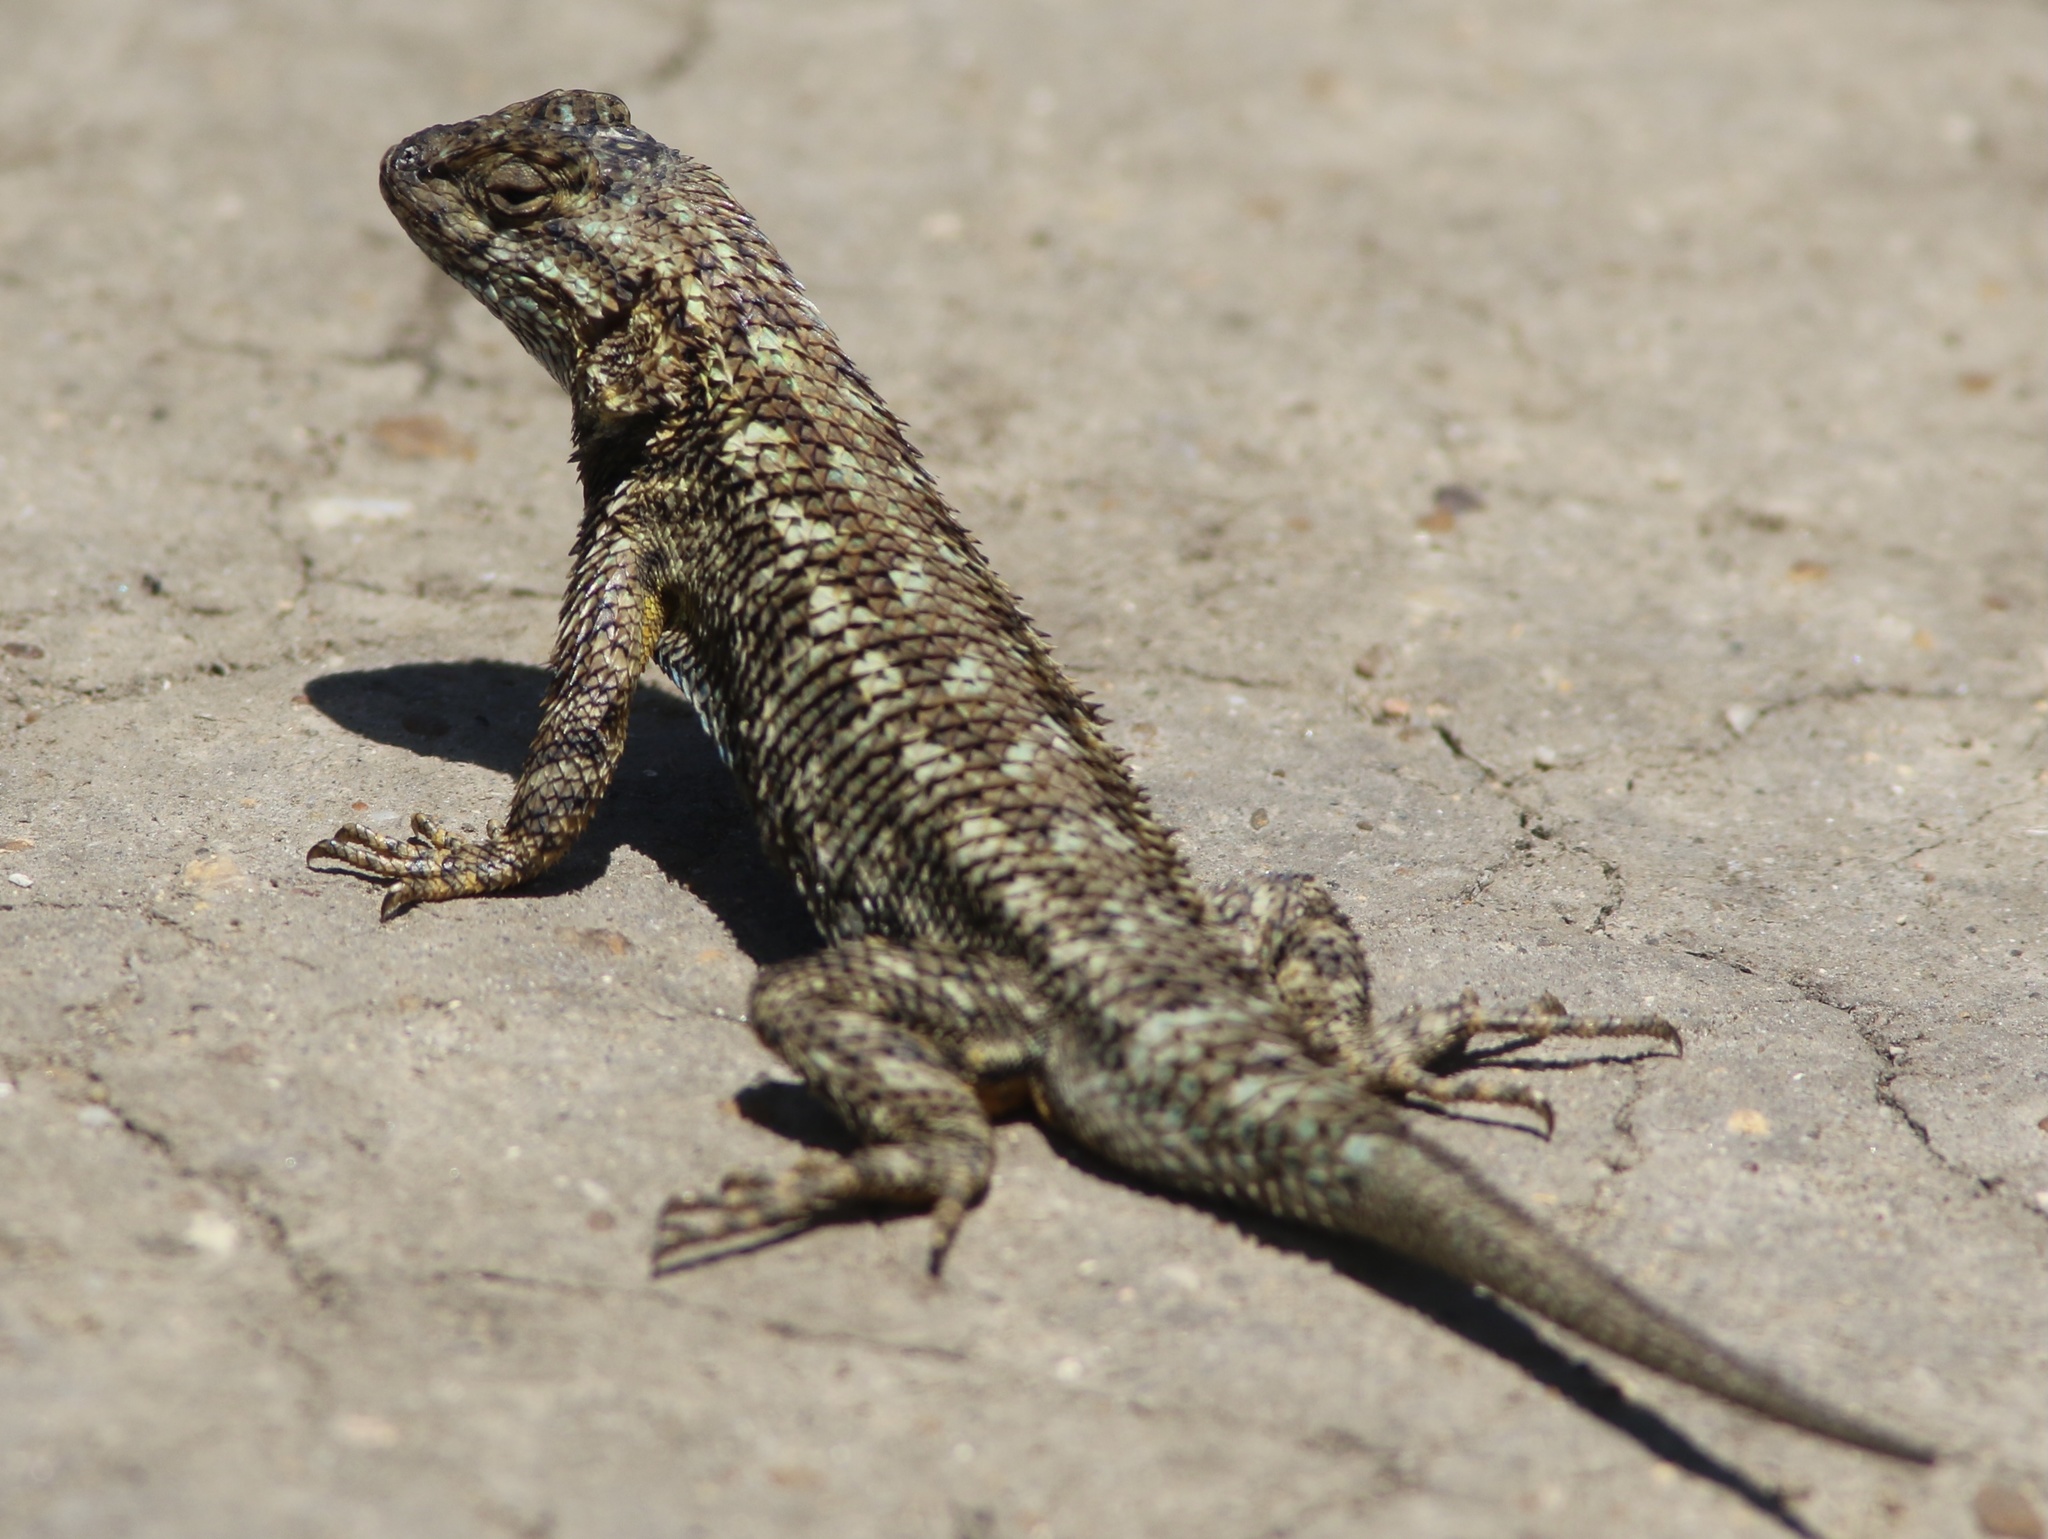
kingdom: Animalia
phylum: Chordata
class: Squamata
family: Phrynosomatidae
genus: Sceloporus
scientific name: Sceloporus occidentalis
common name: Western fence lizard
